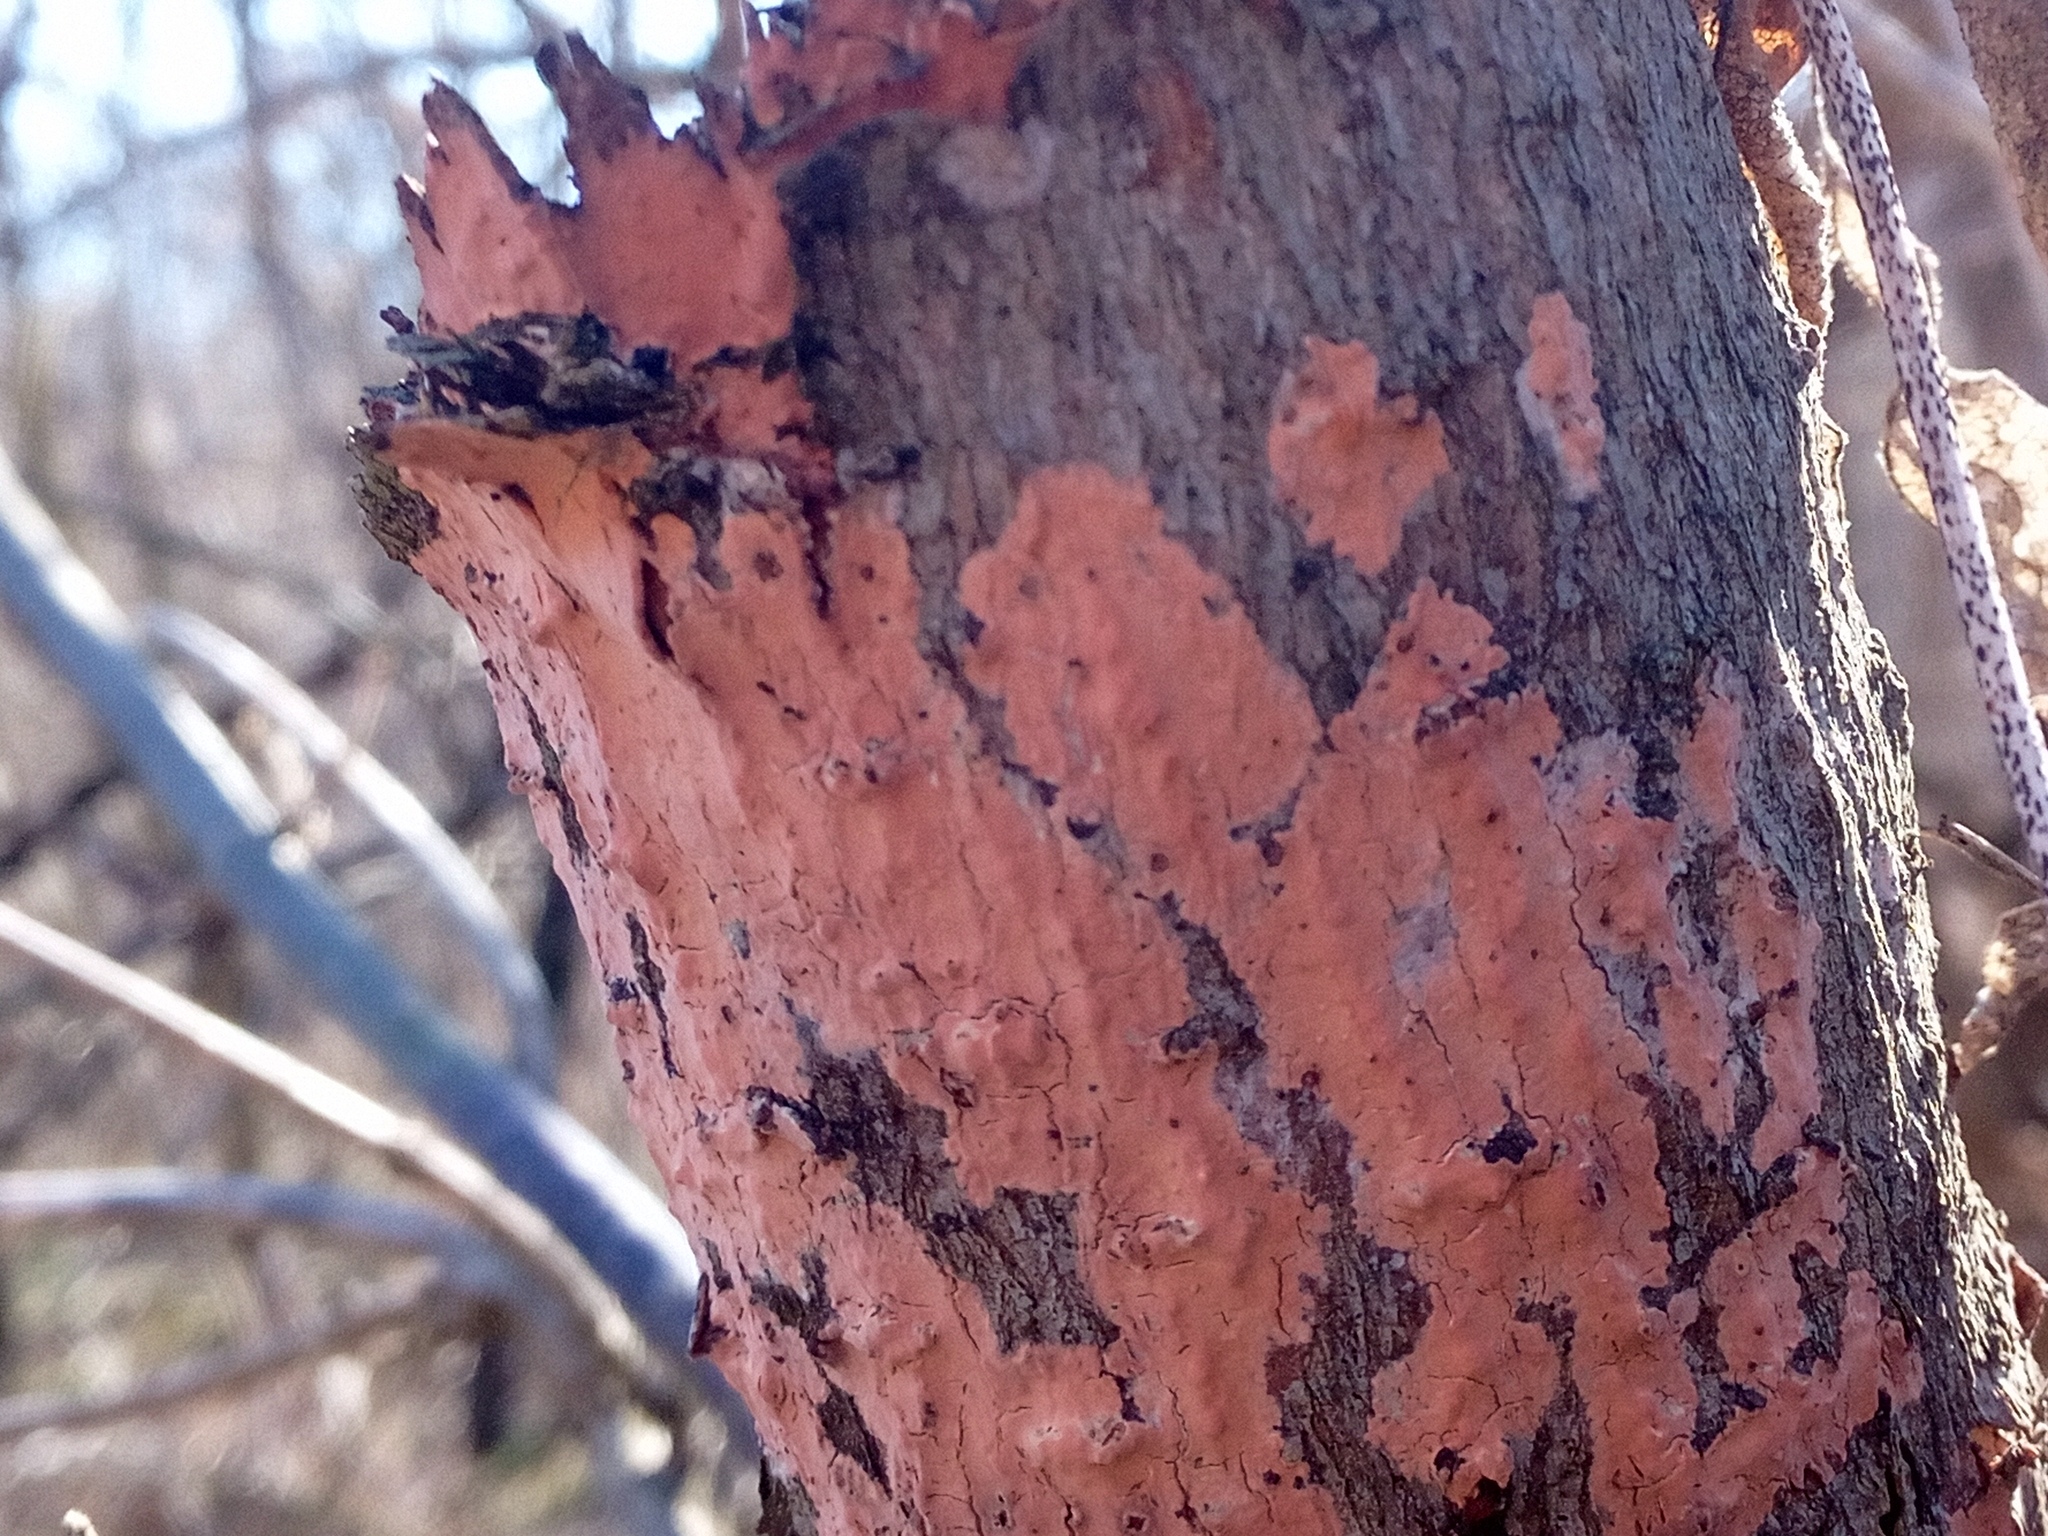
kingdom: Fungi
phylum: Basidiomycota
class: Agaricomycetes
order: Russulales
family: Peniophoraceae
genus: Peniophora
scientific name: Peniophora incarnata
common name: Rosy crust
